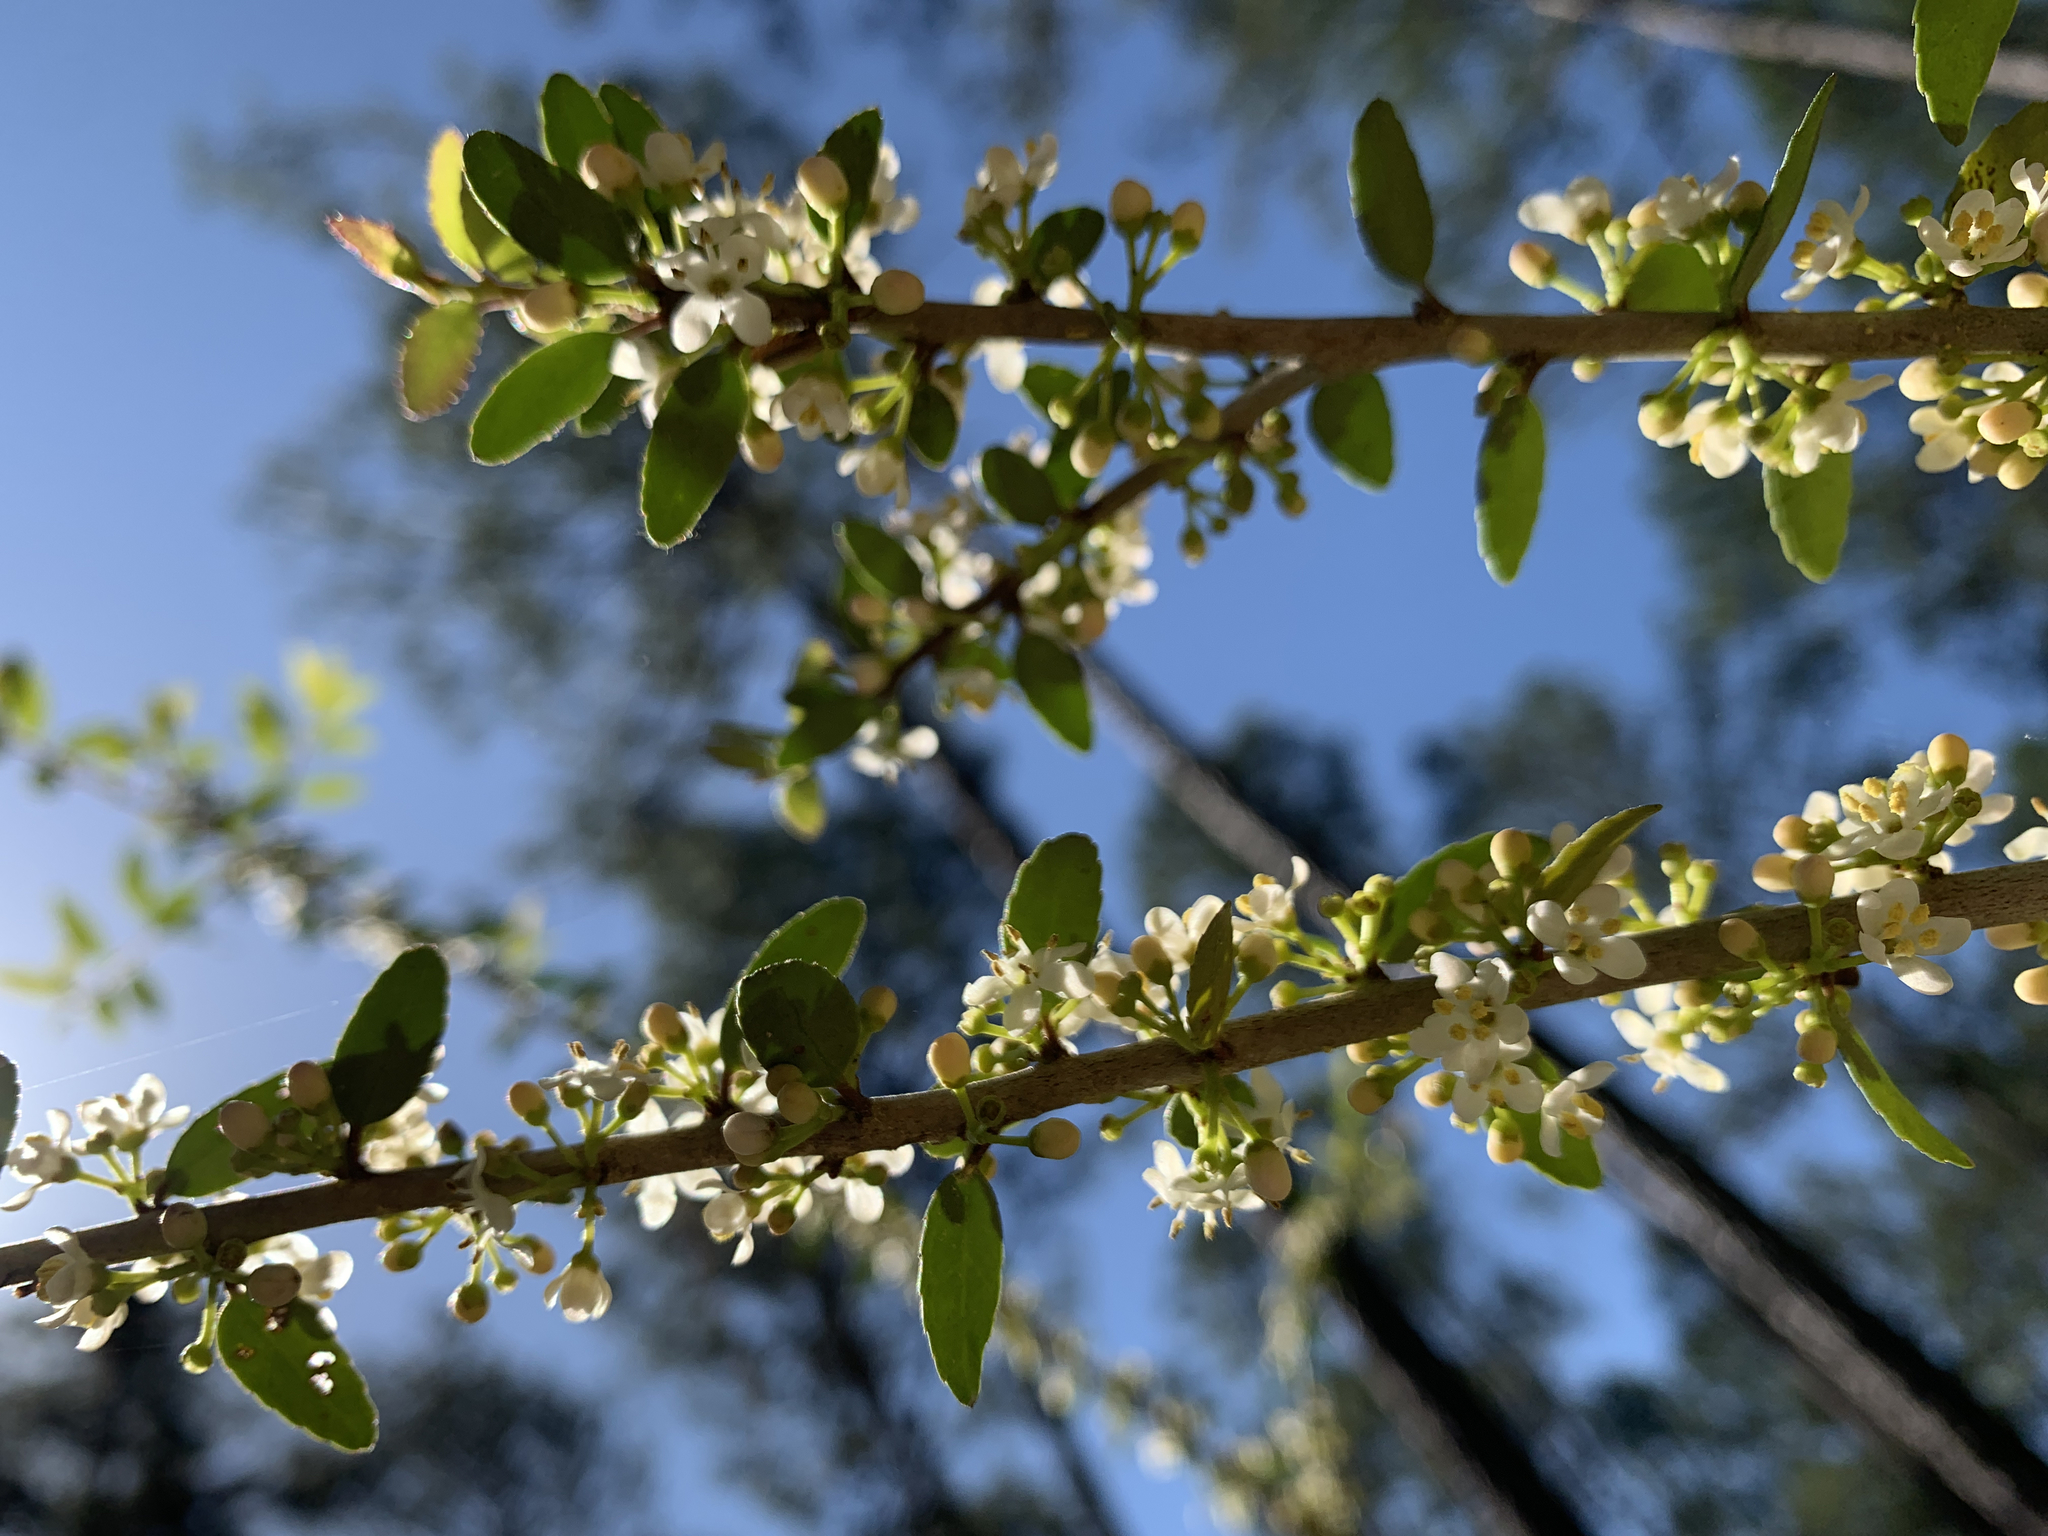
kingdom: Plantae
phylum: Tracheophyta
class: Magnoliopsida
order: Aquifoliales
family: Aquifoliaceae
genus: Ilex
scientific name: Ilex vomitoria
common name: Yaupon holly
